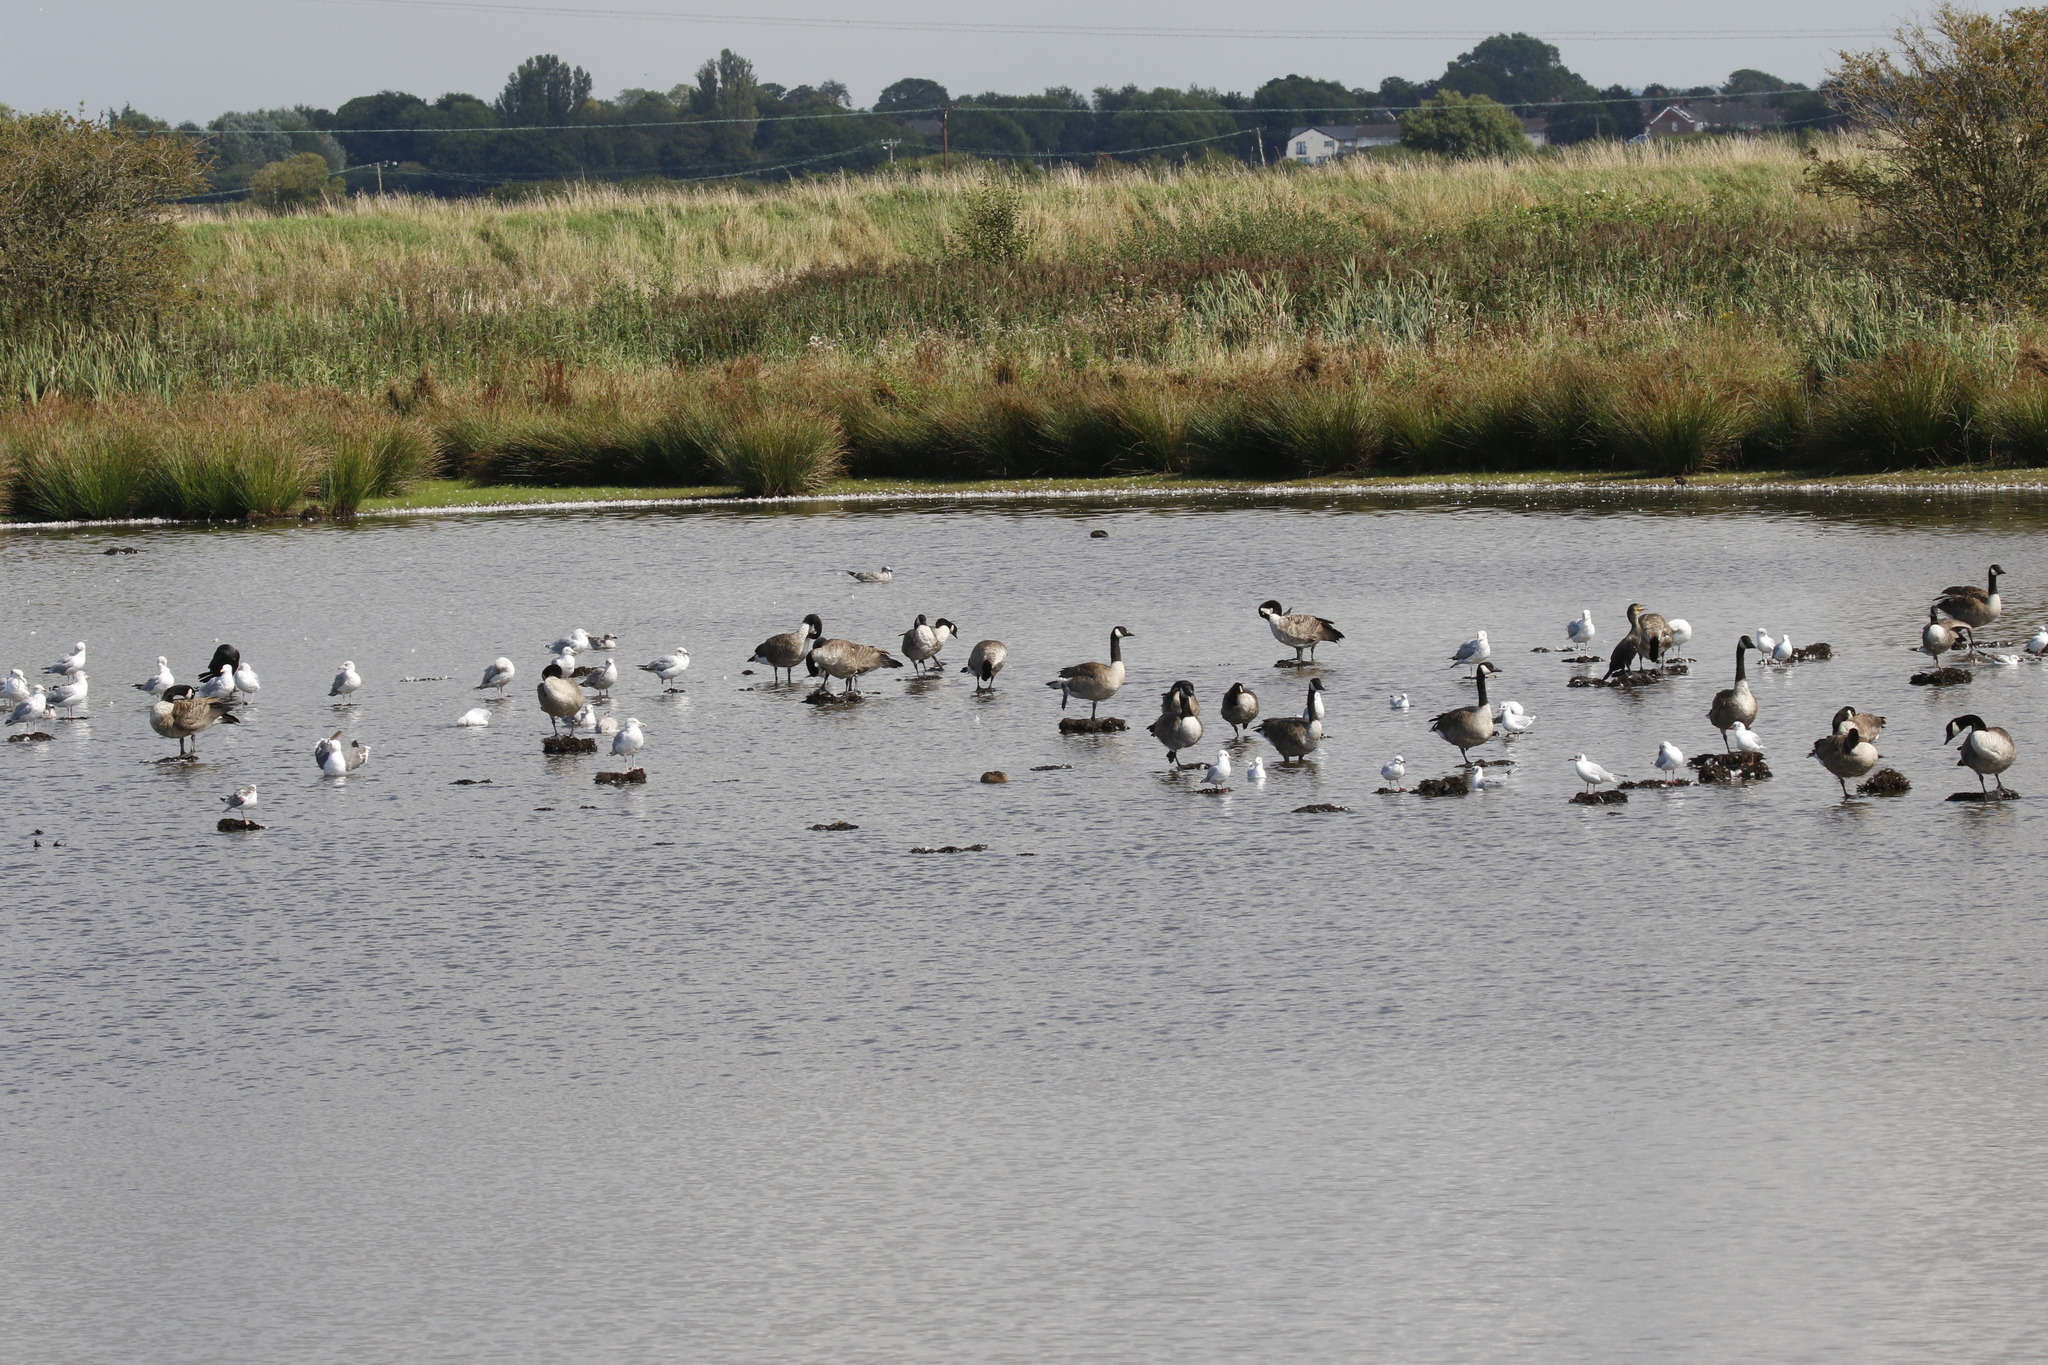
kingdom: Animalia
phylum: Chordata
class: Aves
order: Charadriiformes
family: Laridae
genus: Chroicocephalus
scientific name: Chroicocephalus ridibundus
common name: Black-headed gull
